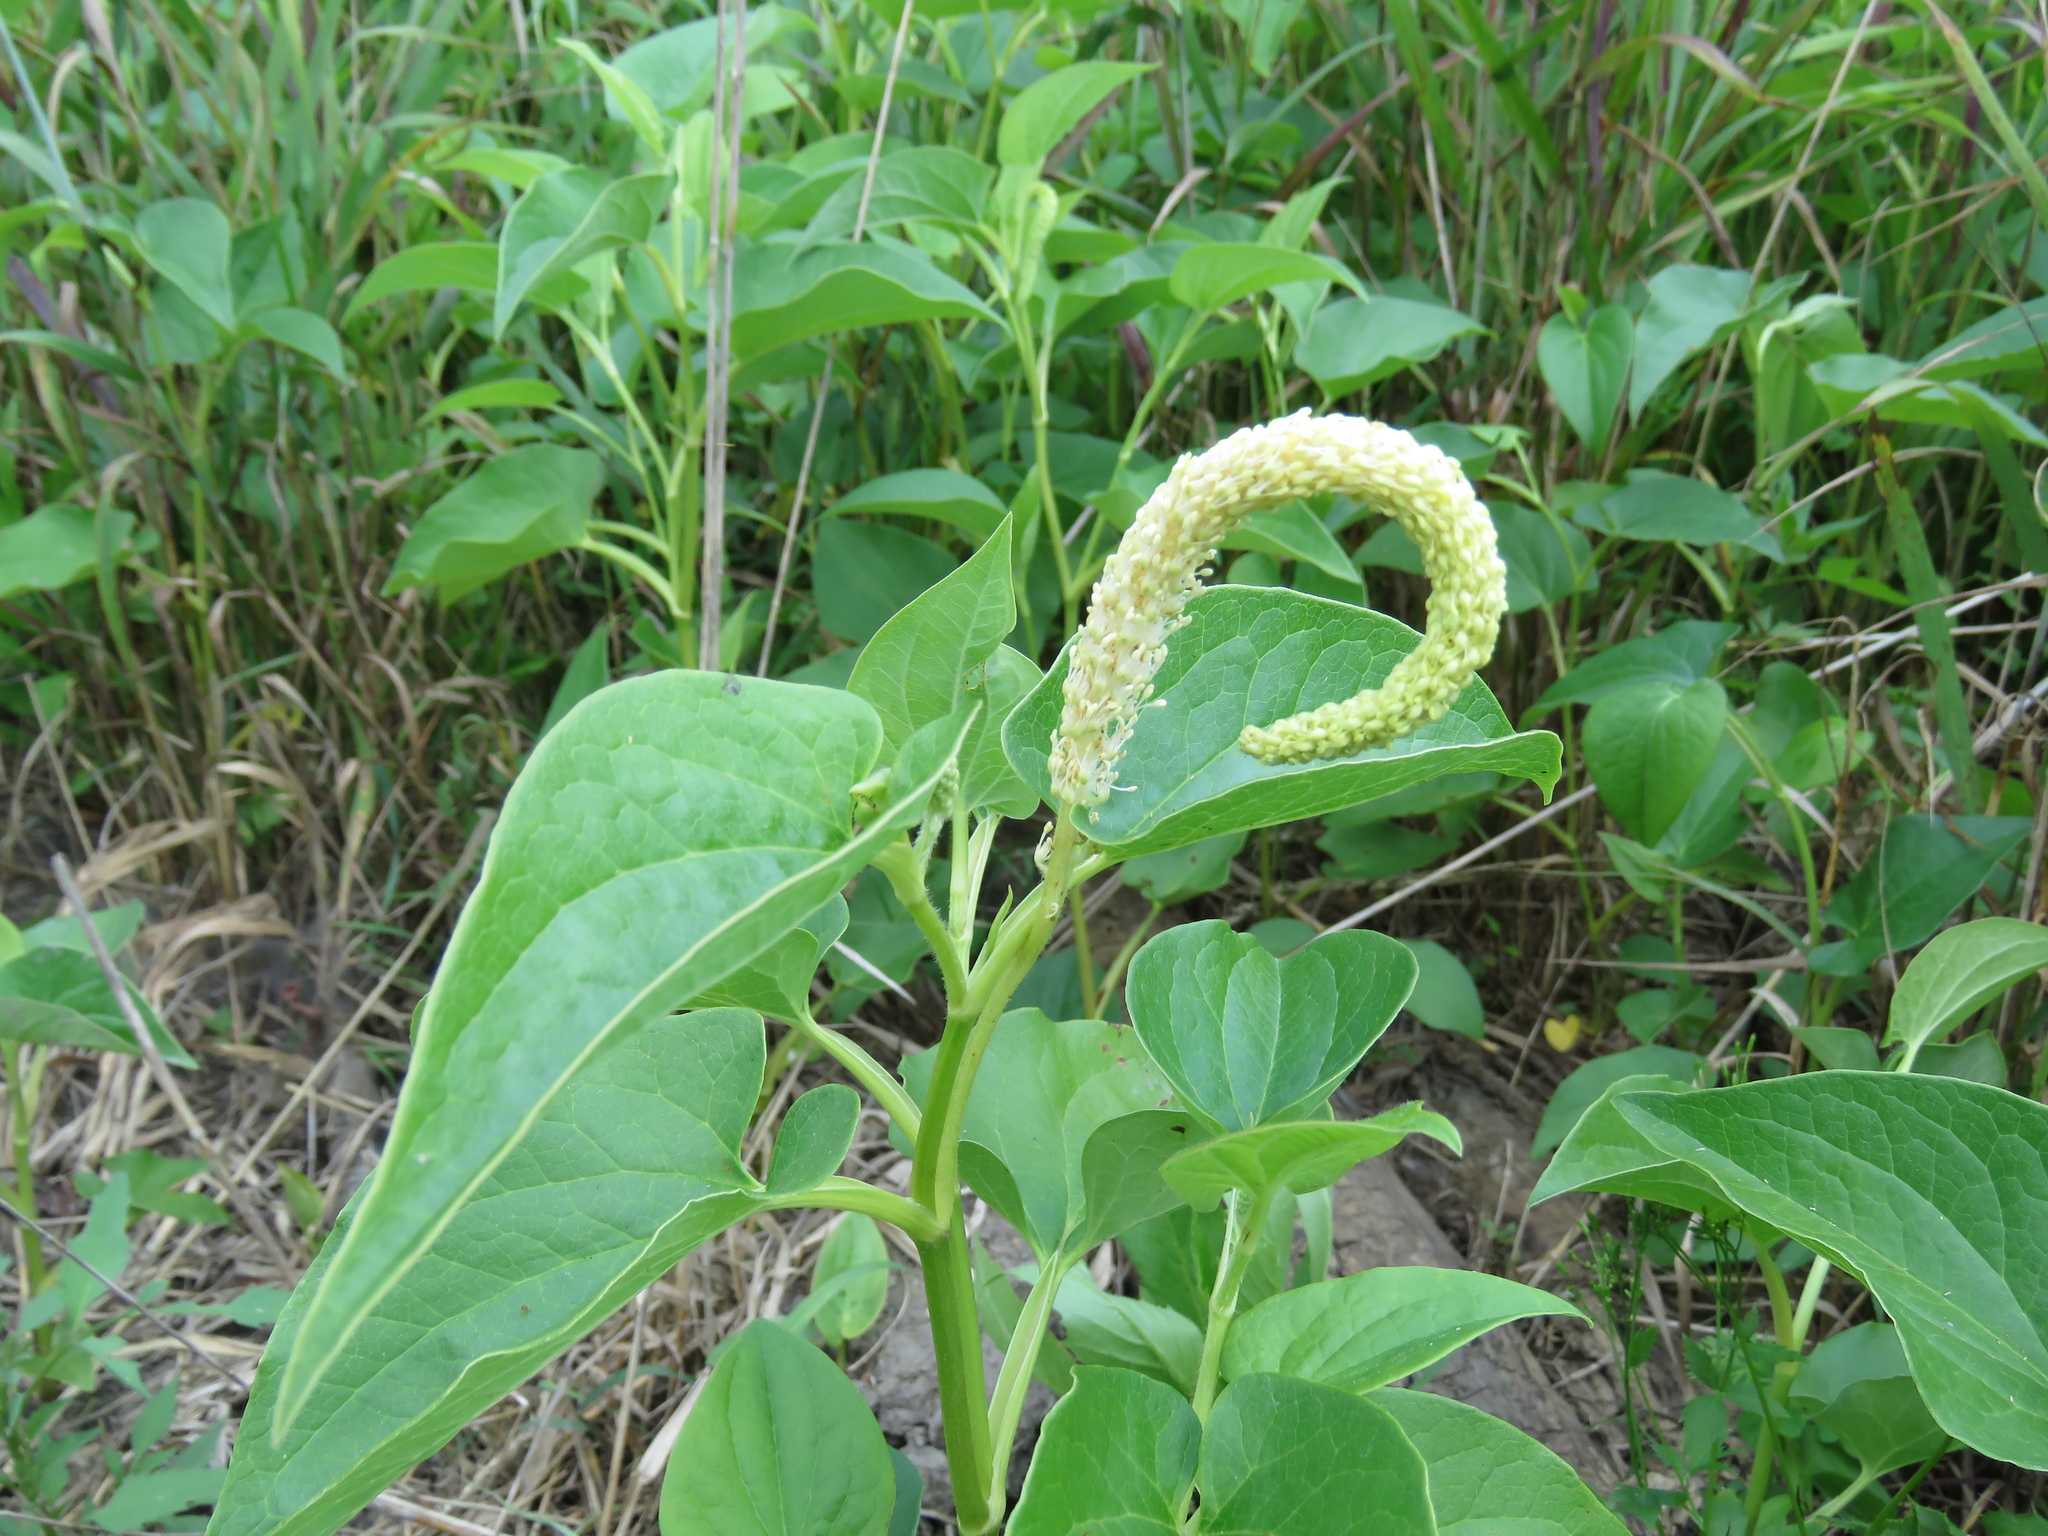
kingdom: Plantae
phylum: Tracheophyta
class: Magnoliopsida
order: Piperales
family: Saururaceae
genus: Saururus
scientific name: Saururus cernuus
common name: Lizard's-tail
